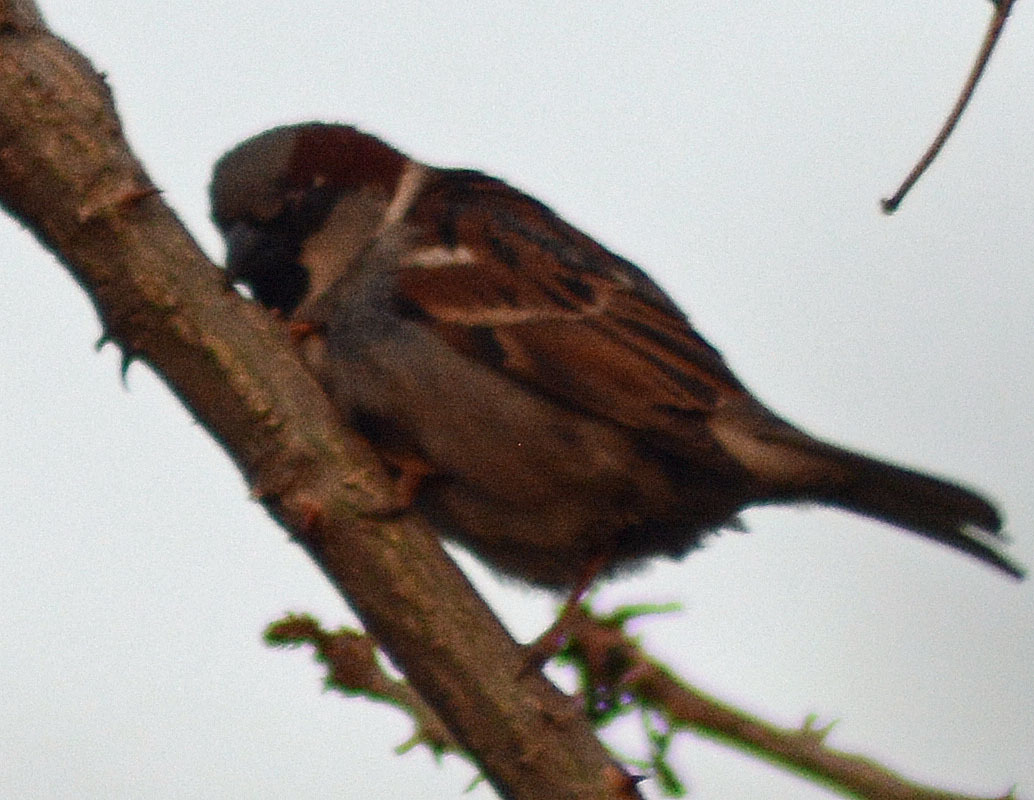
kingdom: Animalia
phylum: Chordata
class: Aves
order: Passeriformes
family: Passeridae
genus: Passer
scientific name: Passer domesticus
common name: House sparrow
